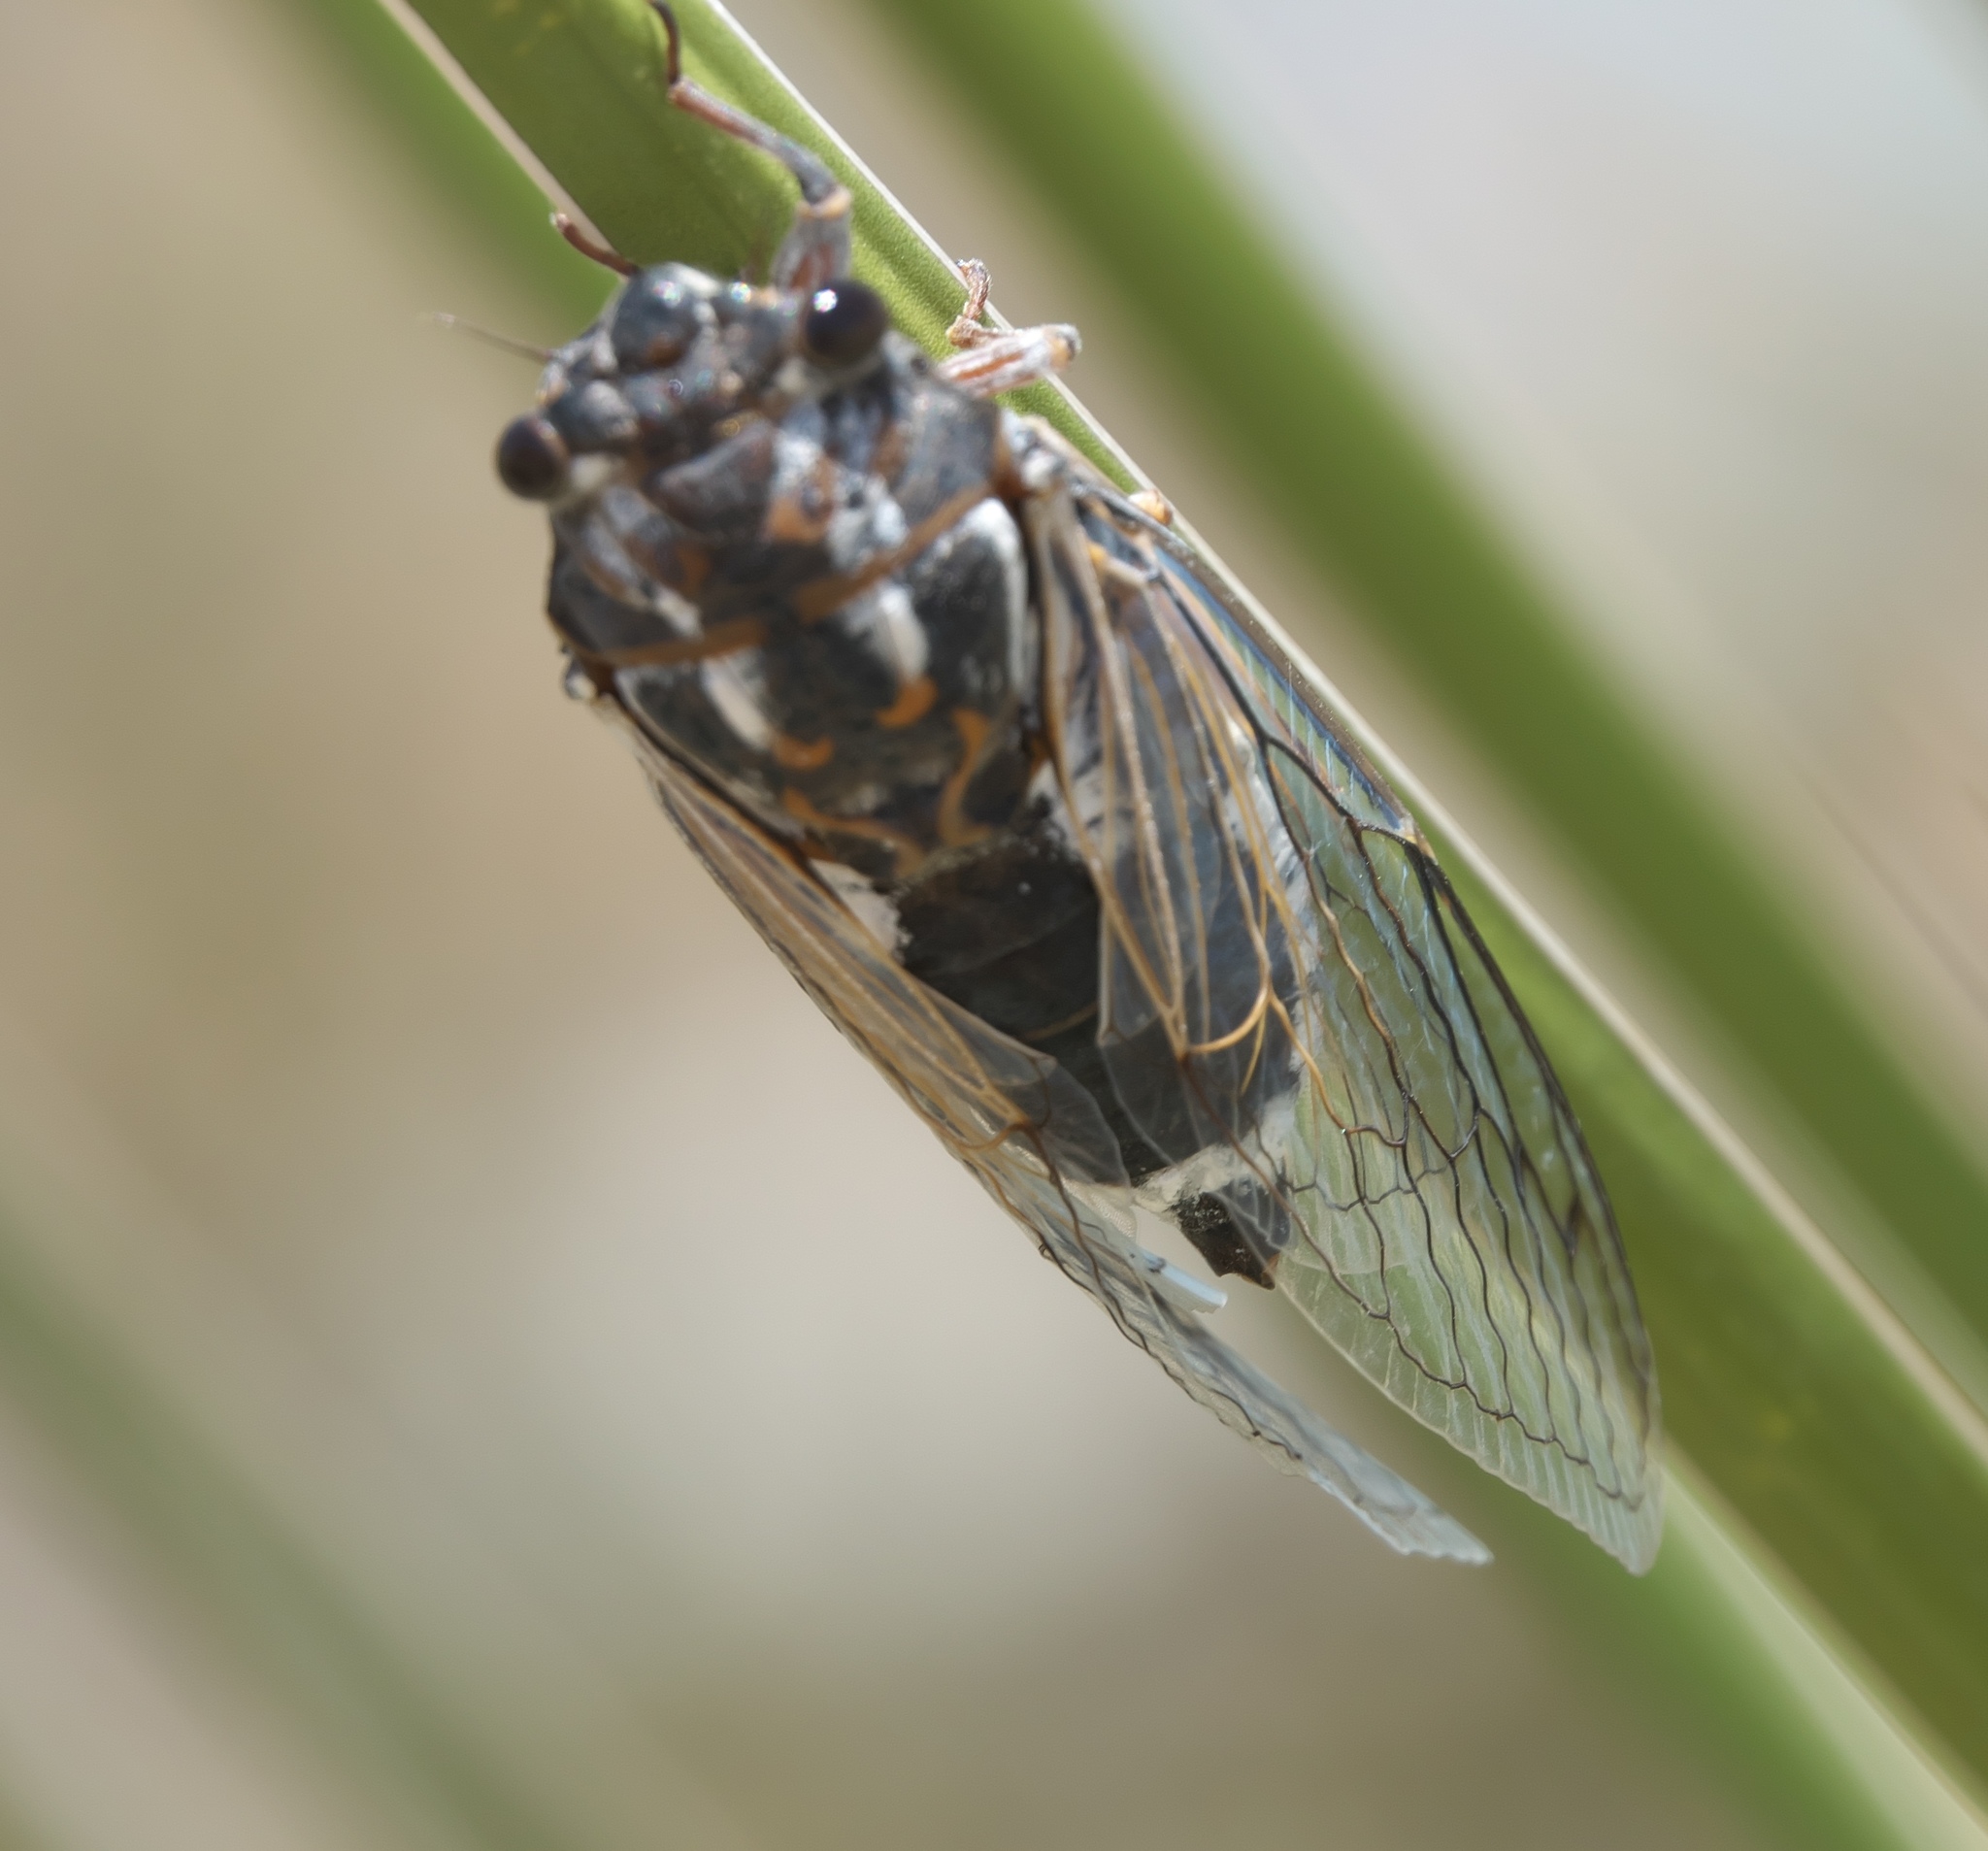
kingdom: Animalia
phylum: Arthropoda
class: Insecta
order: Hemiptera
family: Cicadidae
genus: Hadoa
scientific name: Hadoa townsendii
